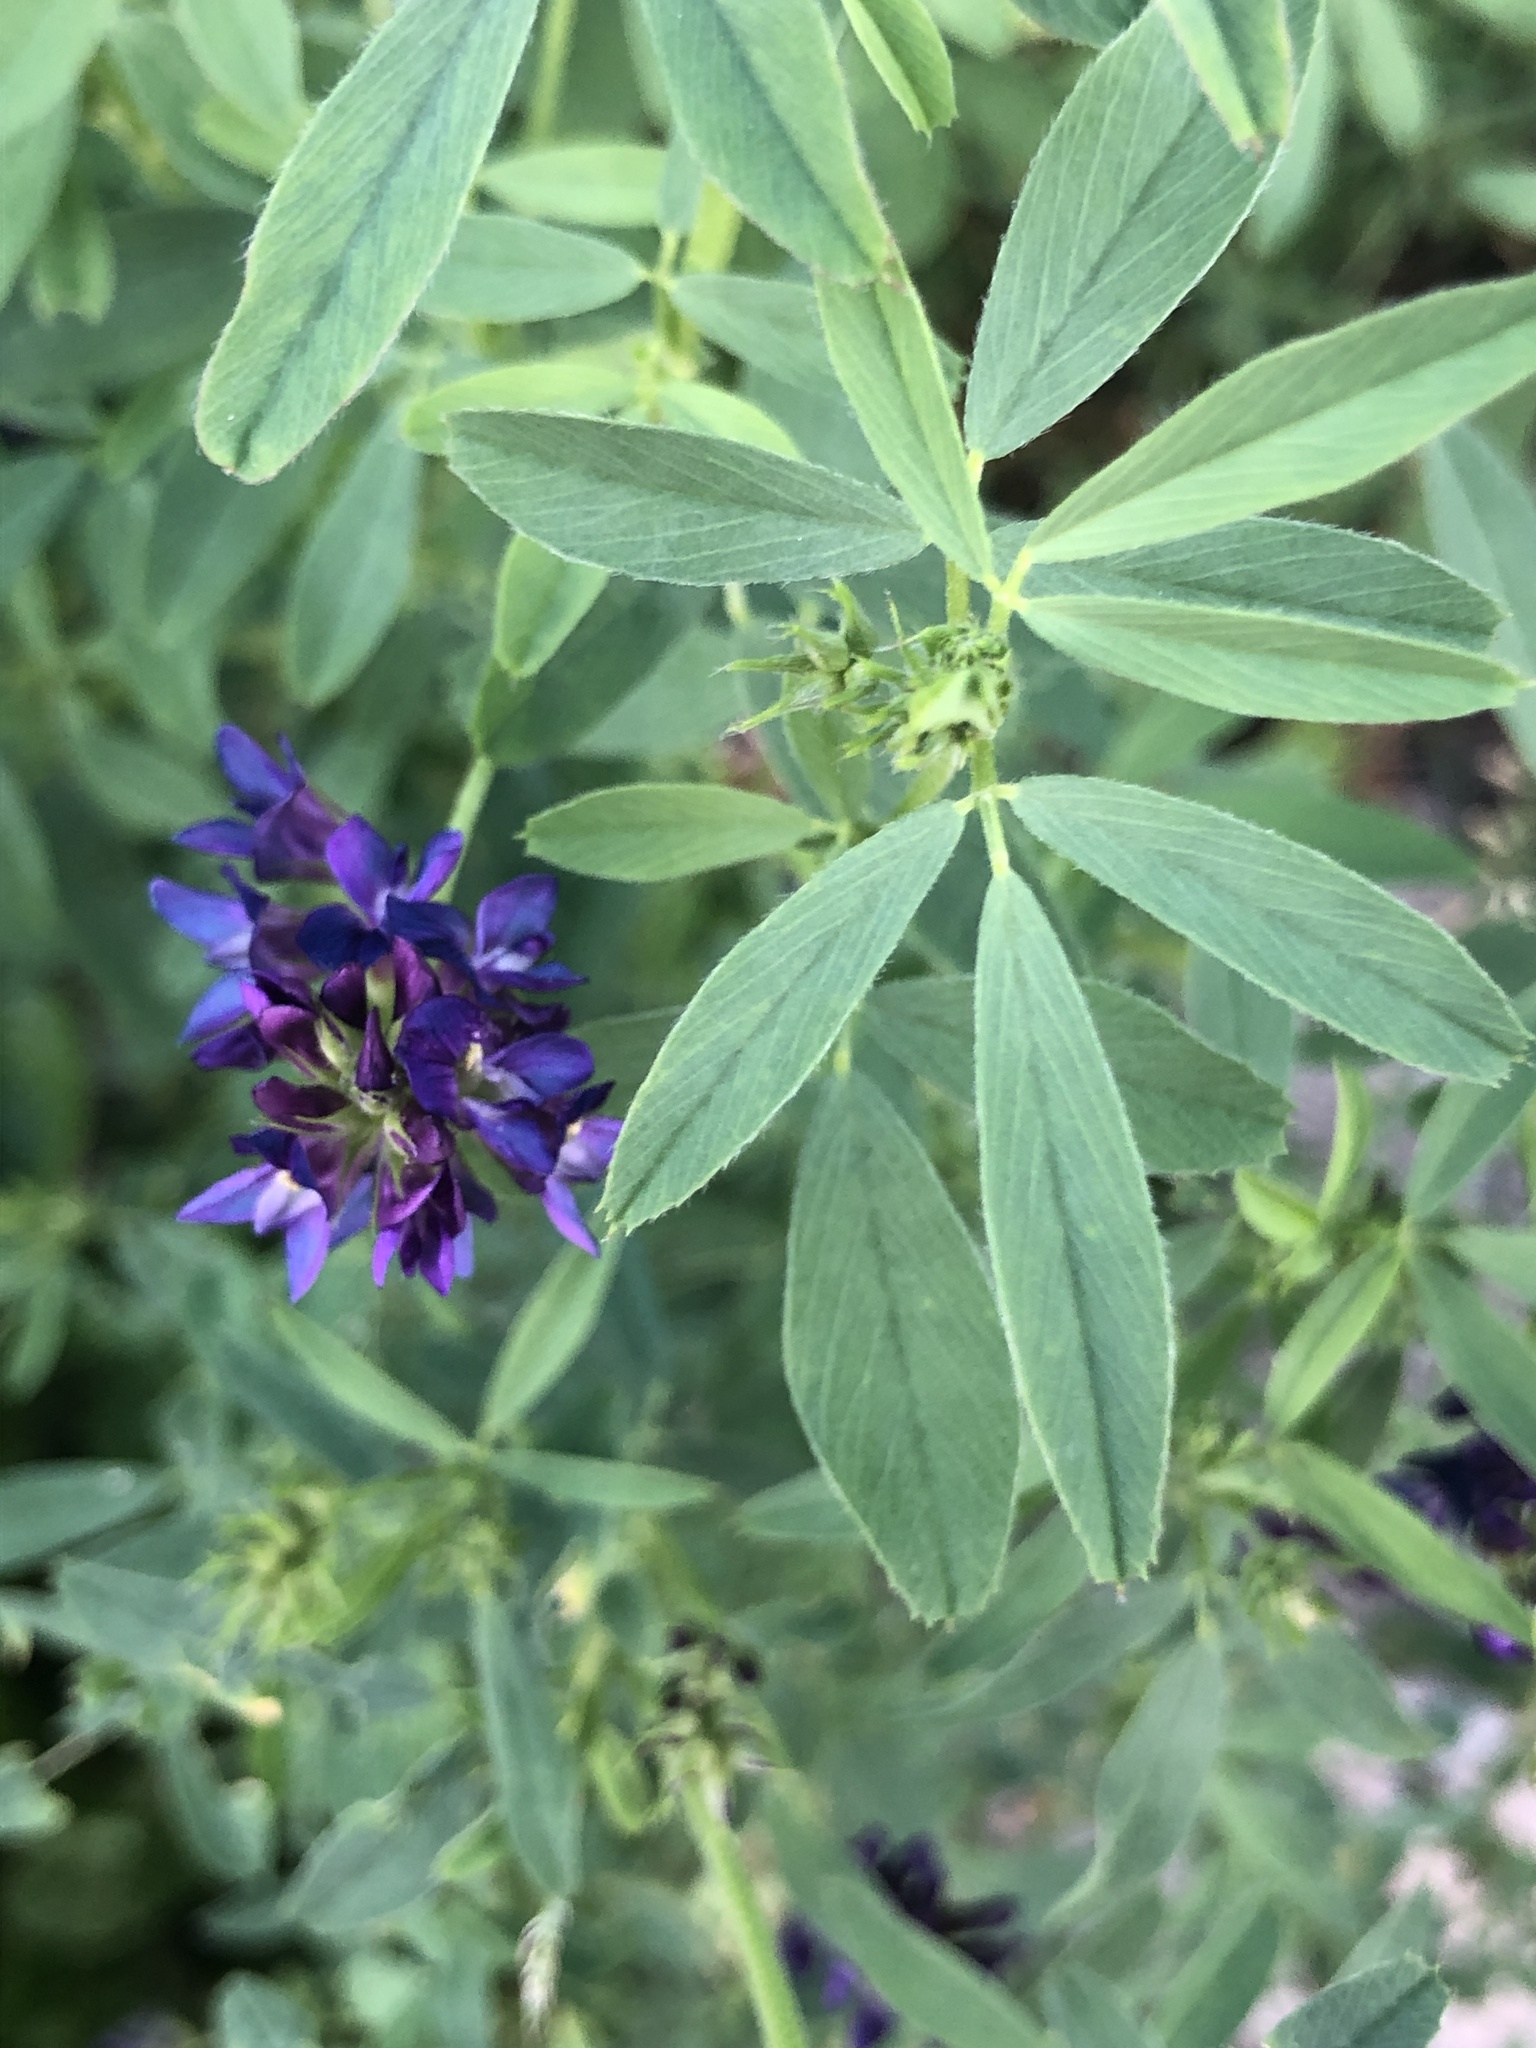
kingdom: Plantae
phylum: Tracheophyta
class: Magnoliopsida
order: Fabales
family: Fabaceae
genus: Medicago
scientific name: Medicago sativa
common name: Alfalfa
